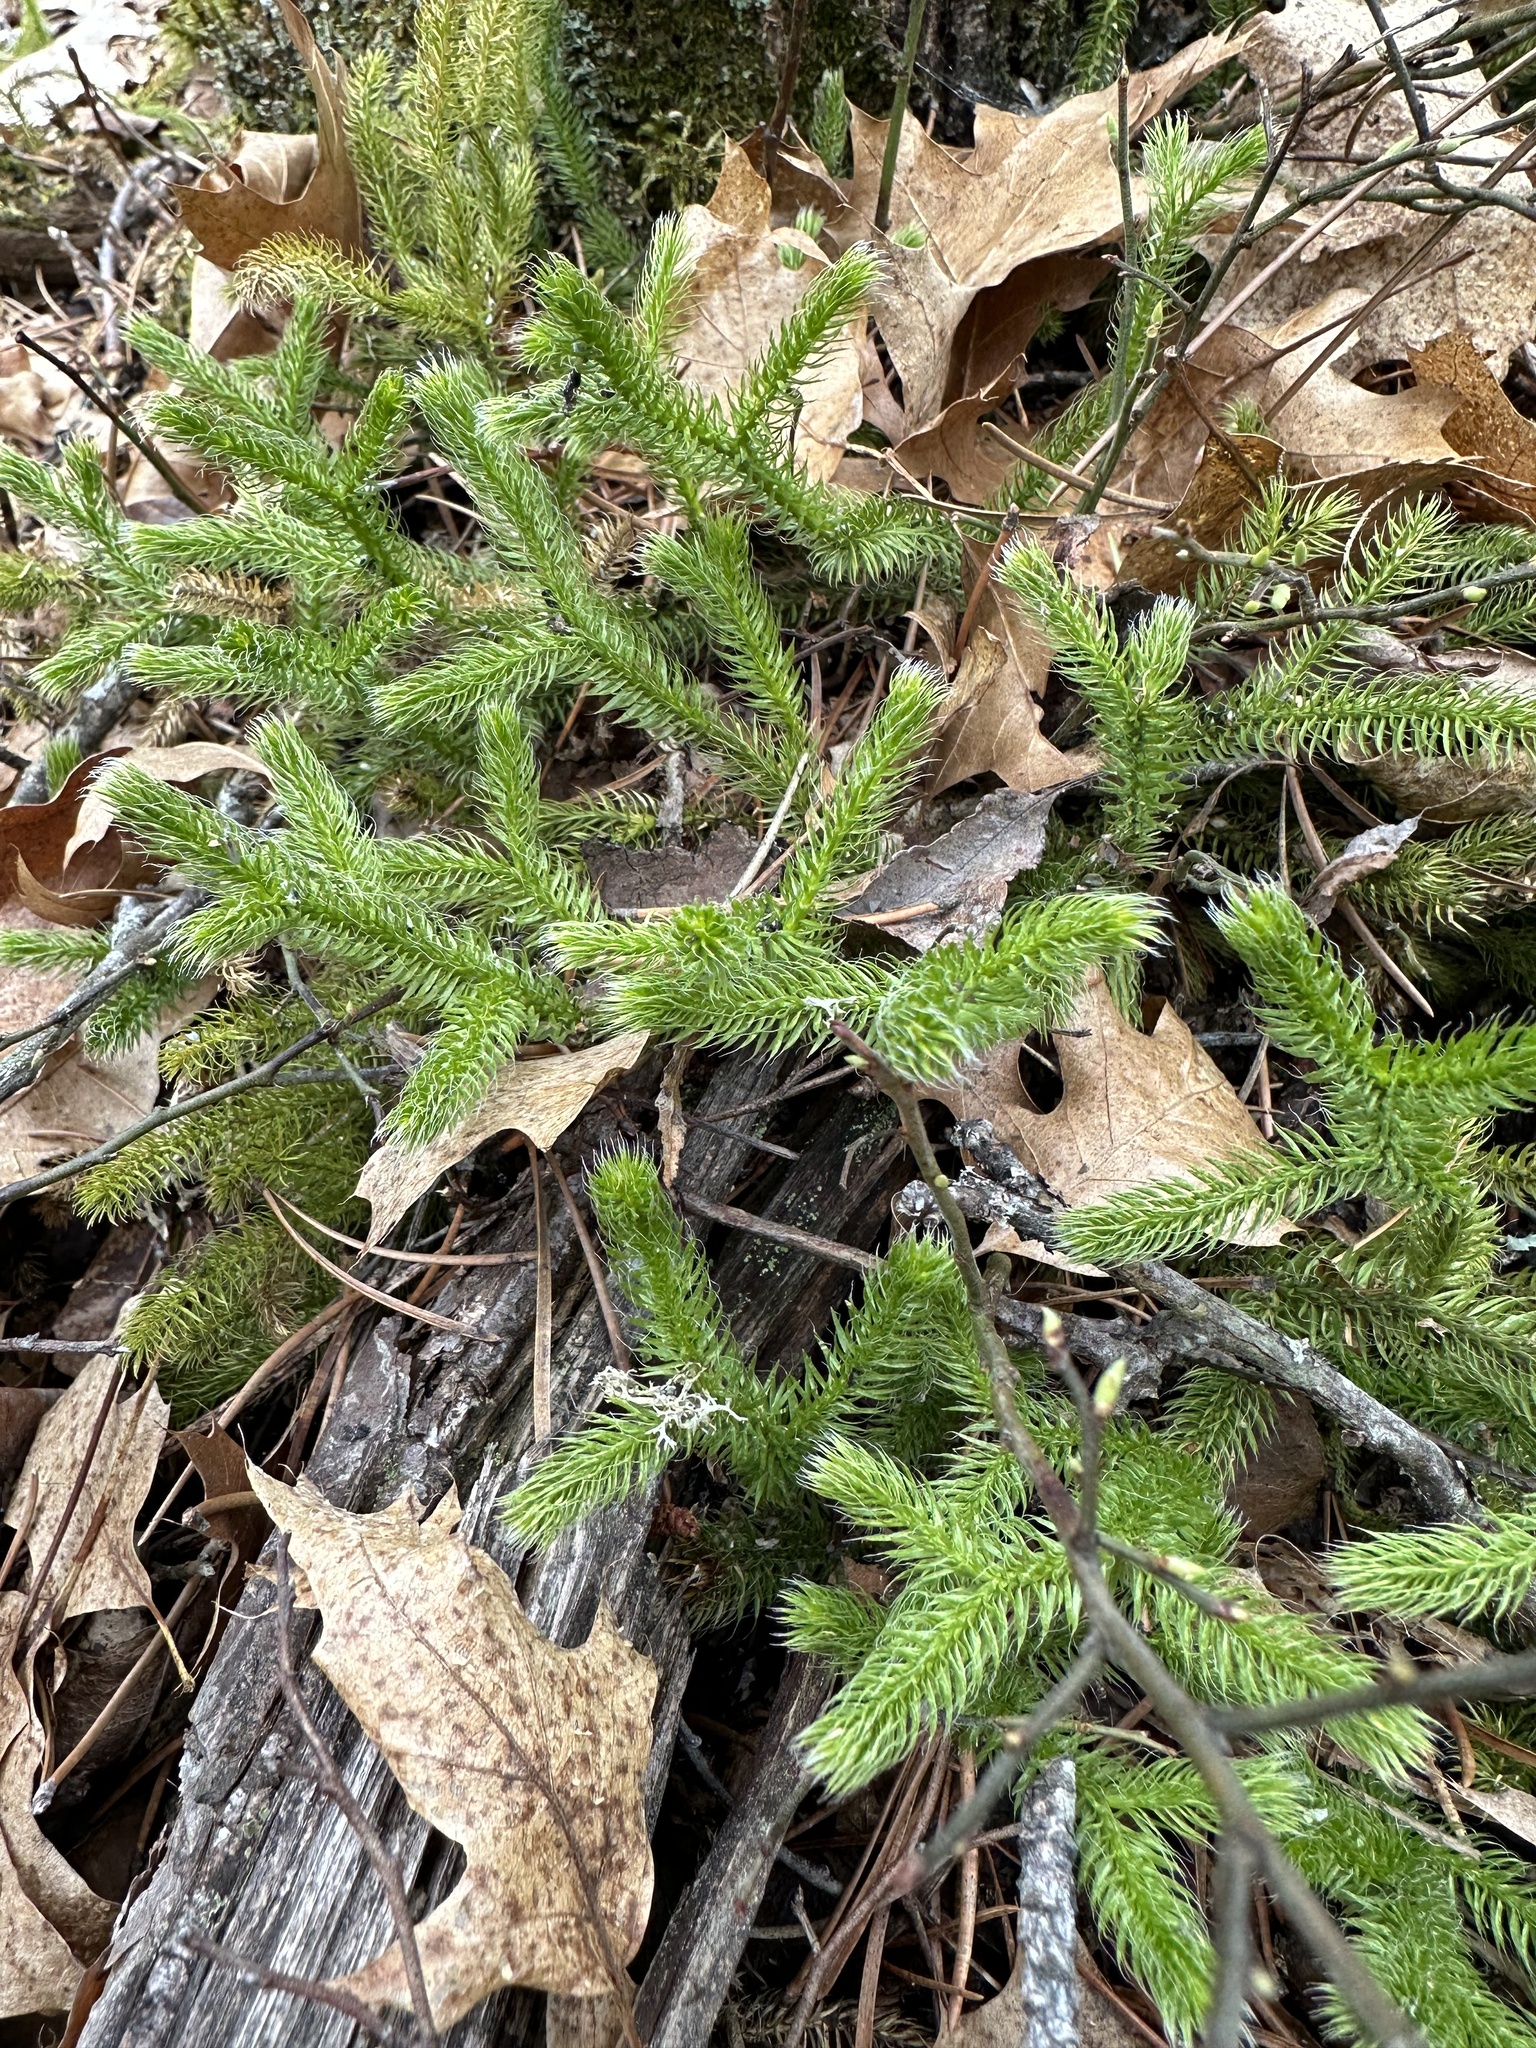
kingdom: Plantae
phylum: Tracheophyta
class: Lycopodiopsida
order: Lycopodiales
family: Lycopodiaceae
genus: Lycopodium
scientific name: Lycopodium clavatum
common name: Stag's-horn clubmoss
